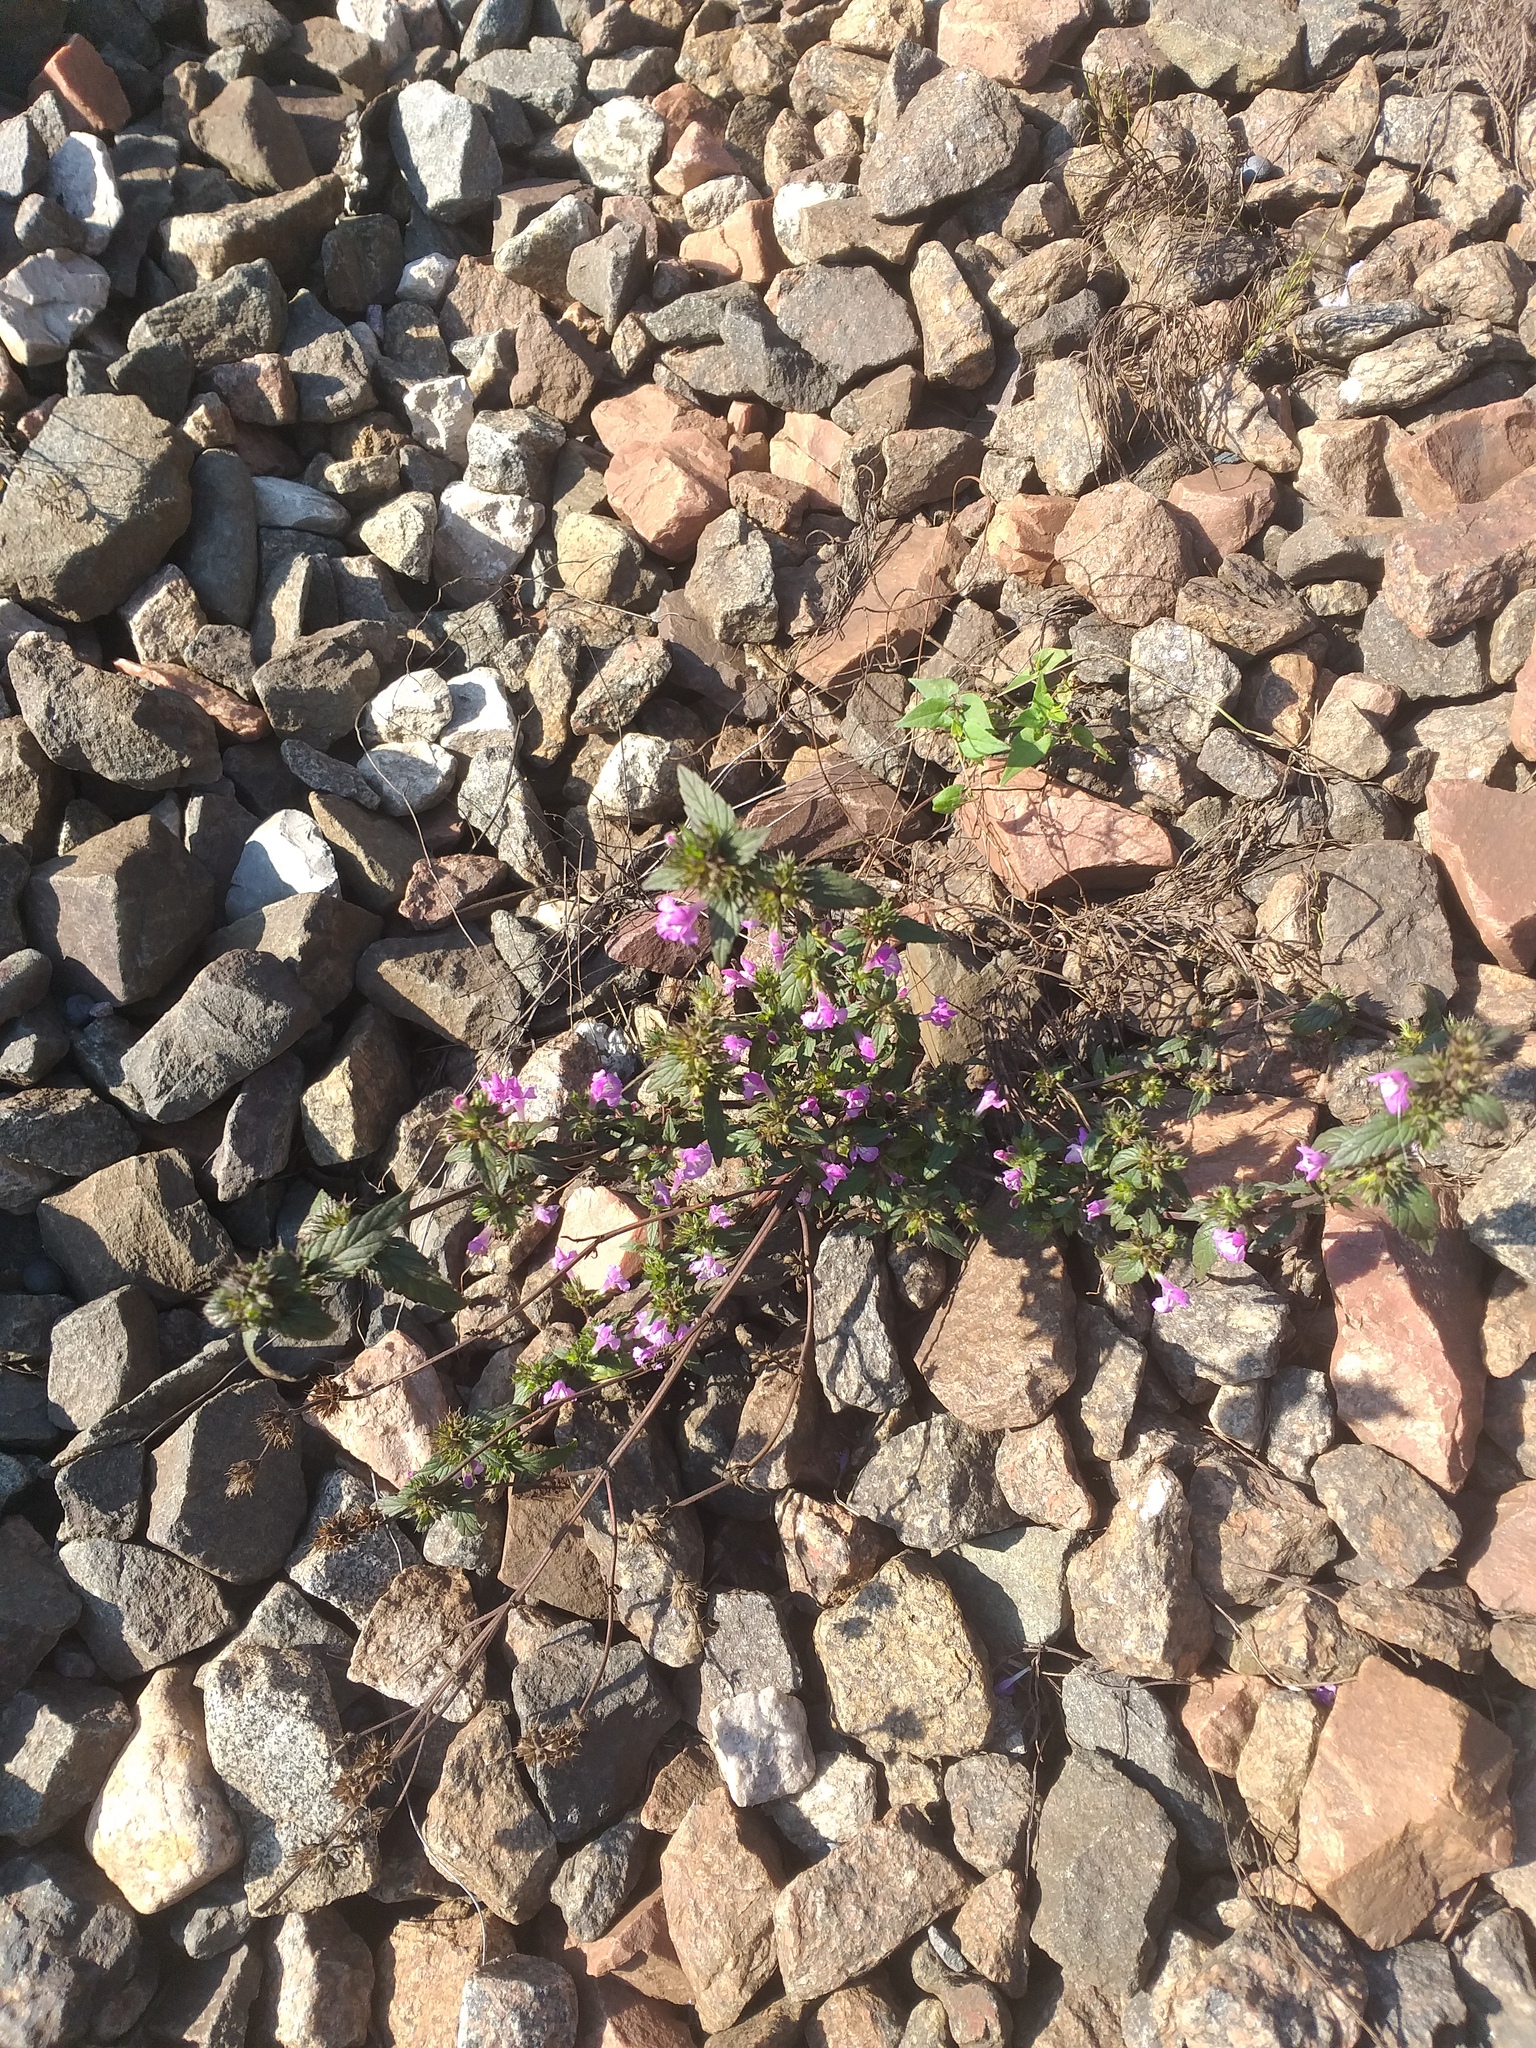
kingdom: Plantae
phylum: Tracheophyta
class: Magnoliopsida
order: Lamiales
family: Lamiaceae
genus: Galeopsis
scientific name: Galeopsis ladanum
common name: Broad-leaved hemp-nettle
